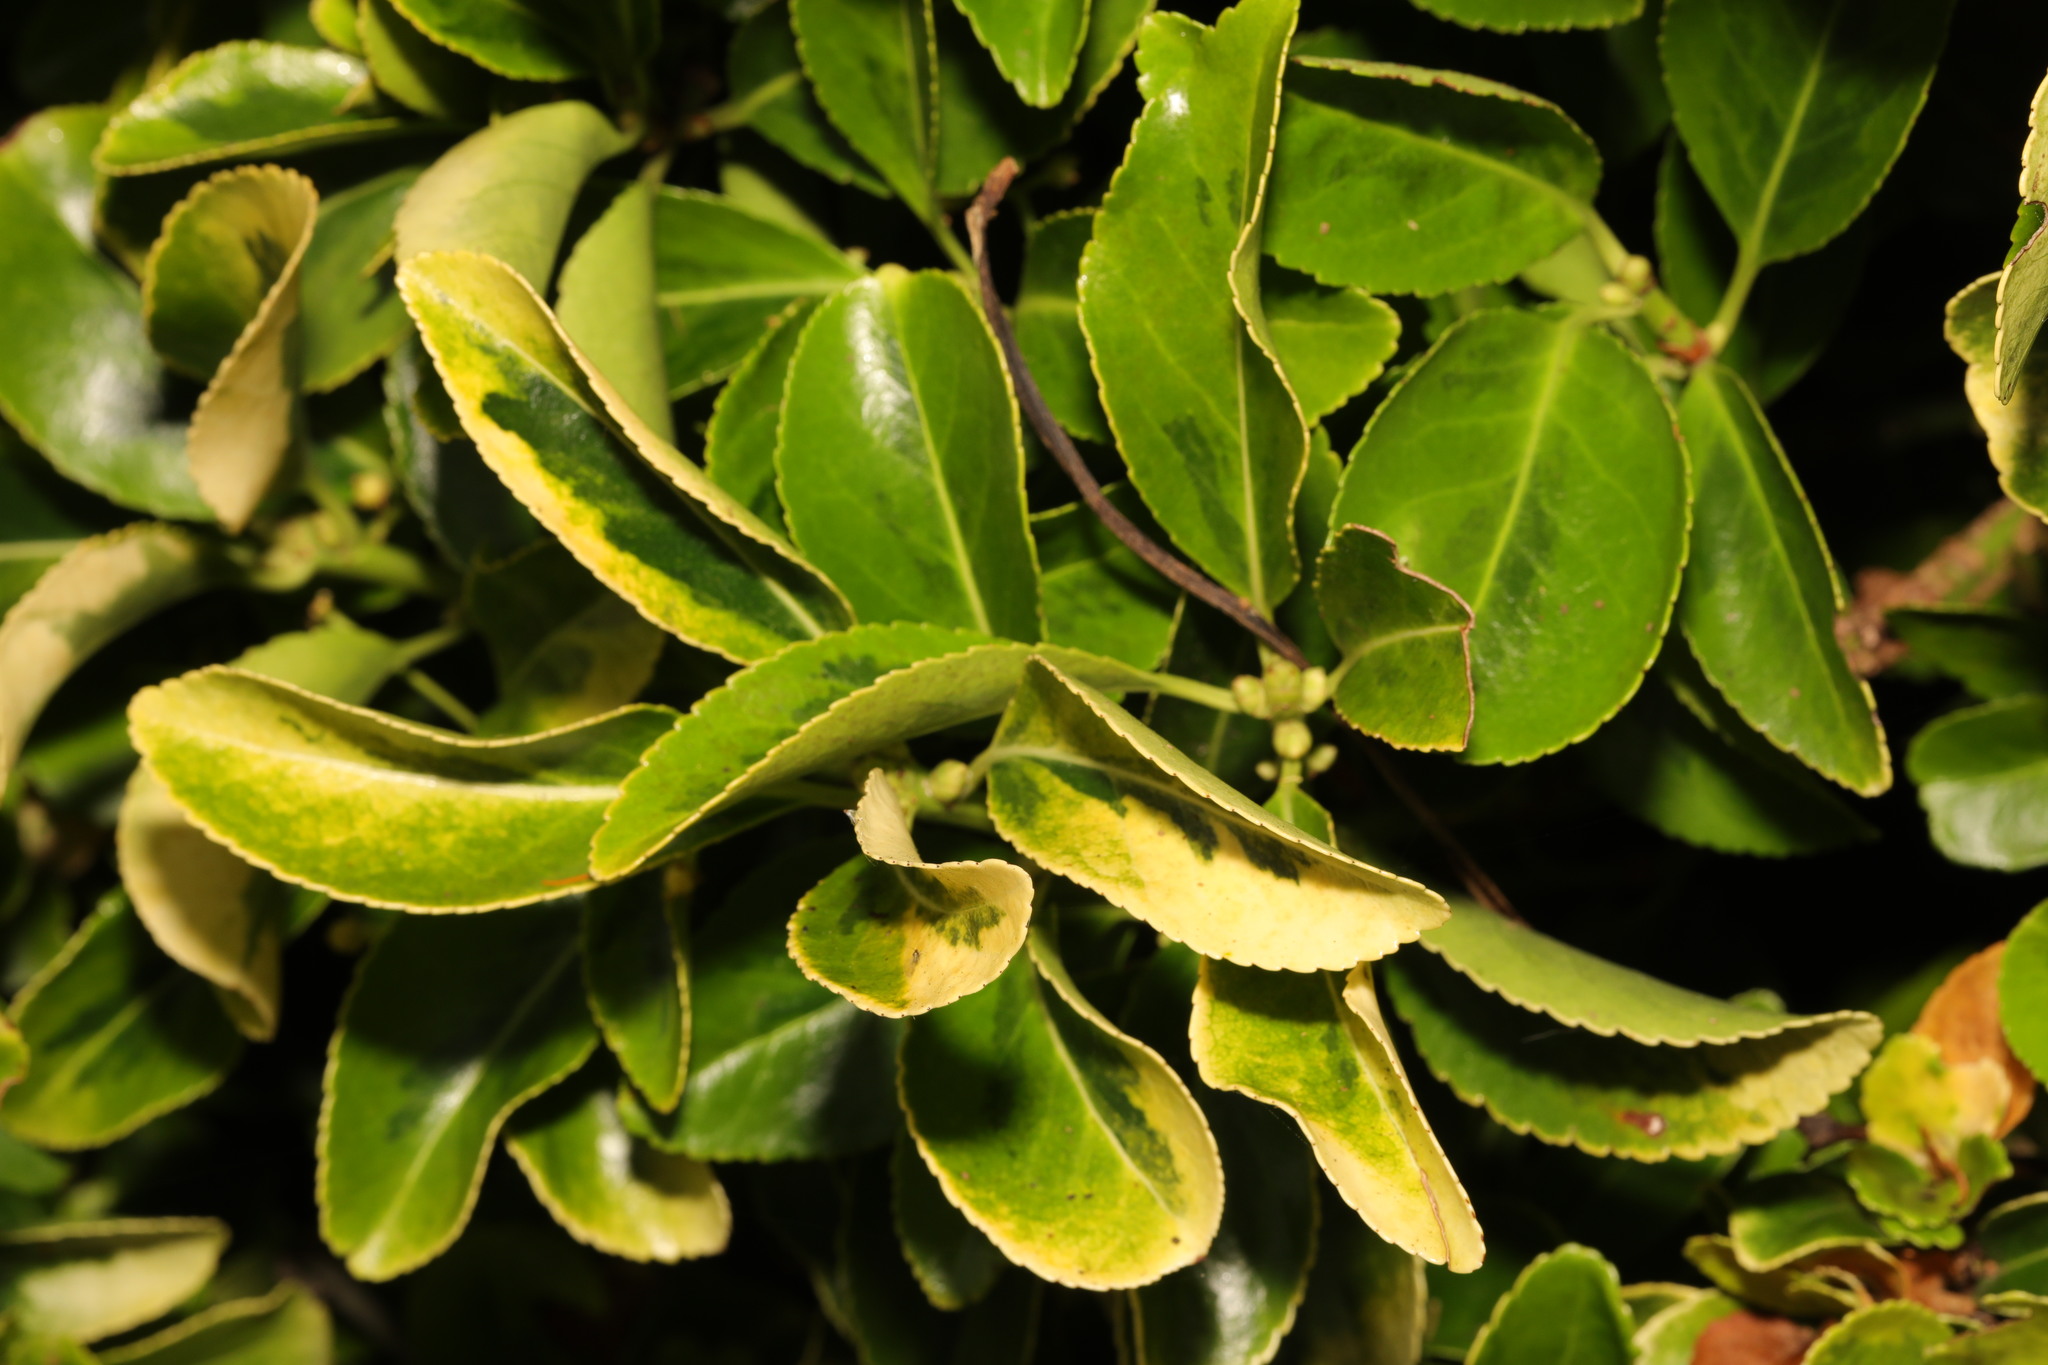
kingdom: Plantae
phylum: Tracheophyta
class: Magnoliopsida
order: Celastrales
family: Celastraceae
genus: Euonymus
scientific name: Euonymus japonicus
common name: Japanese spindletree
